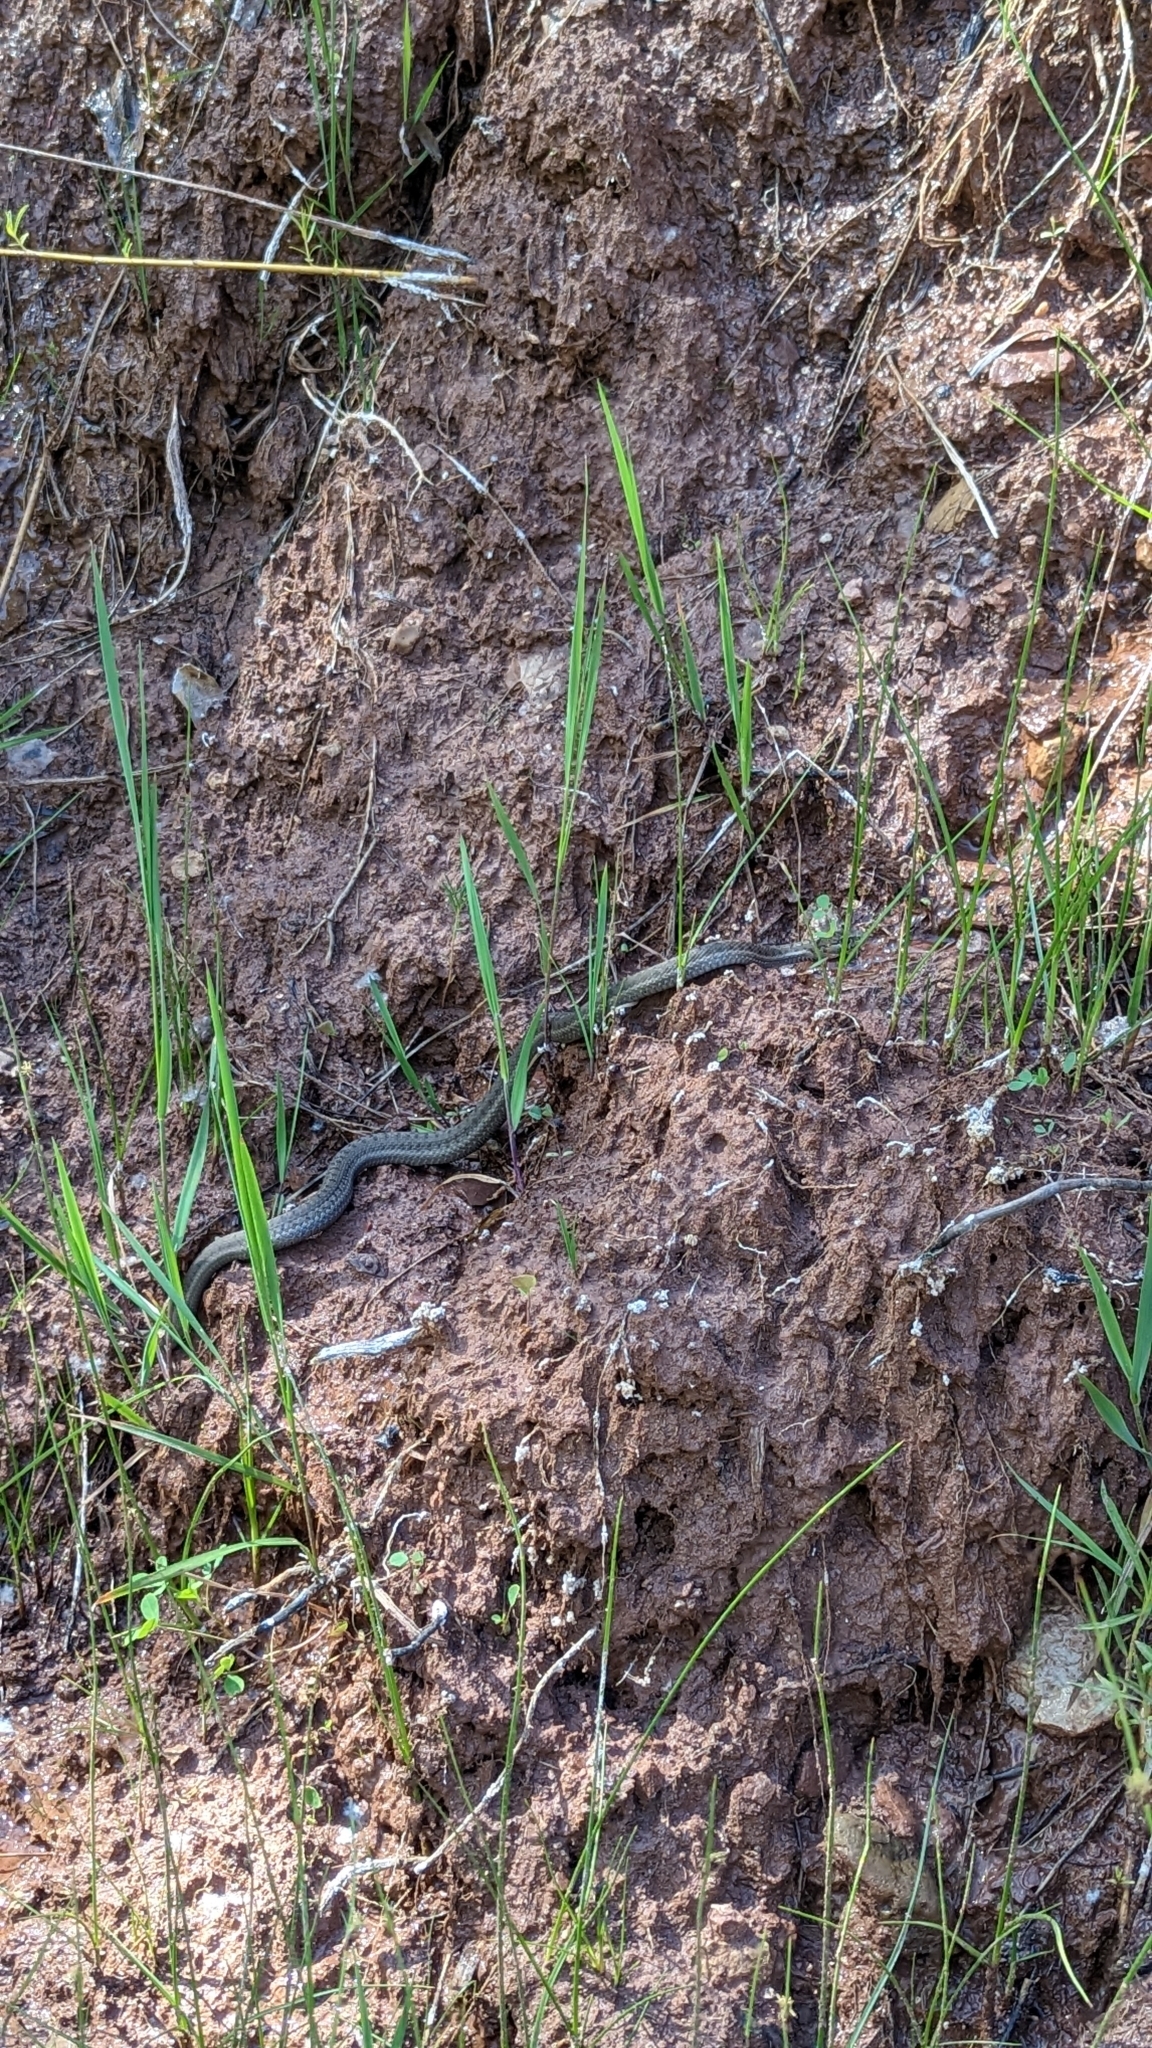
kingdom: Animalia
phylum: Chordata
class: Squamata
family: Colubridae
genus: Thamnophis
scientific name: Thamnophis elegans
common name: Western terrestrial garter snake
